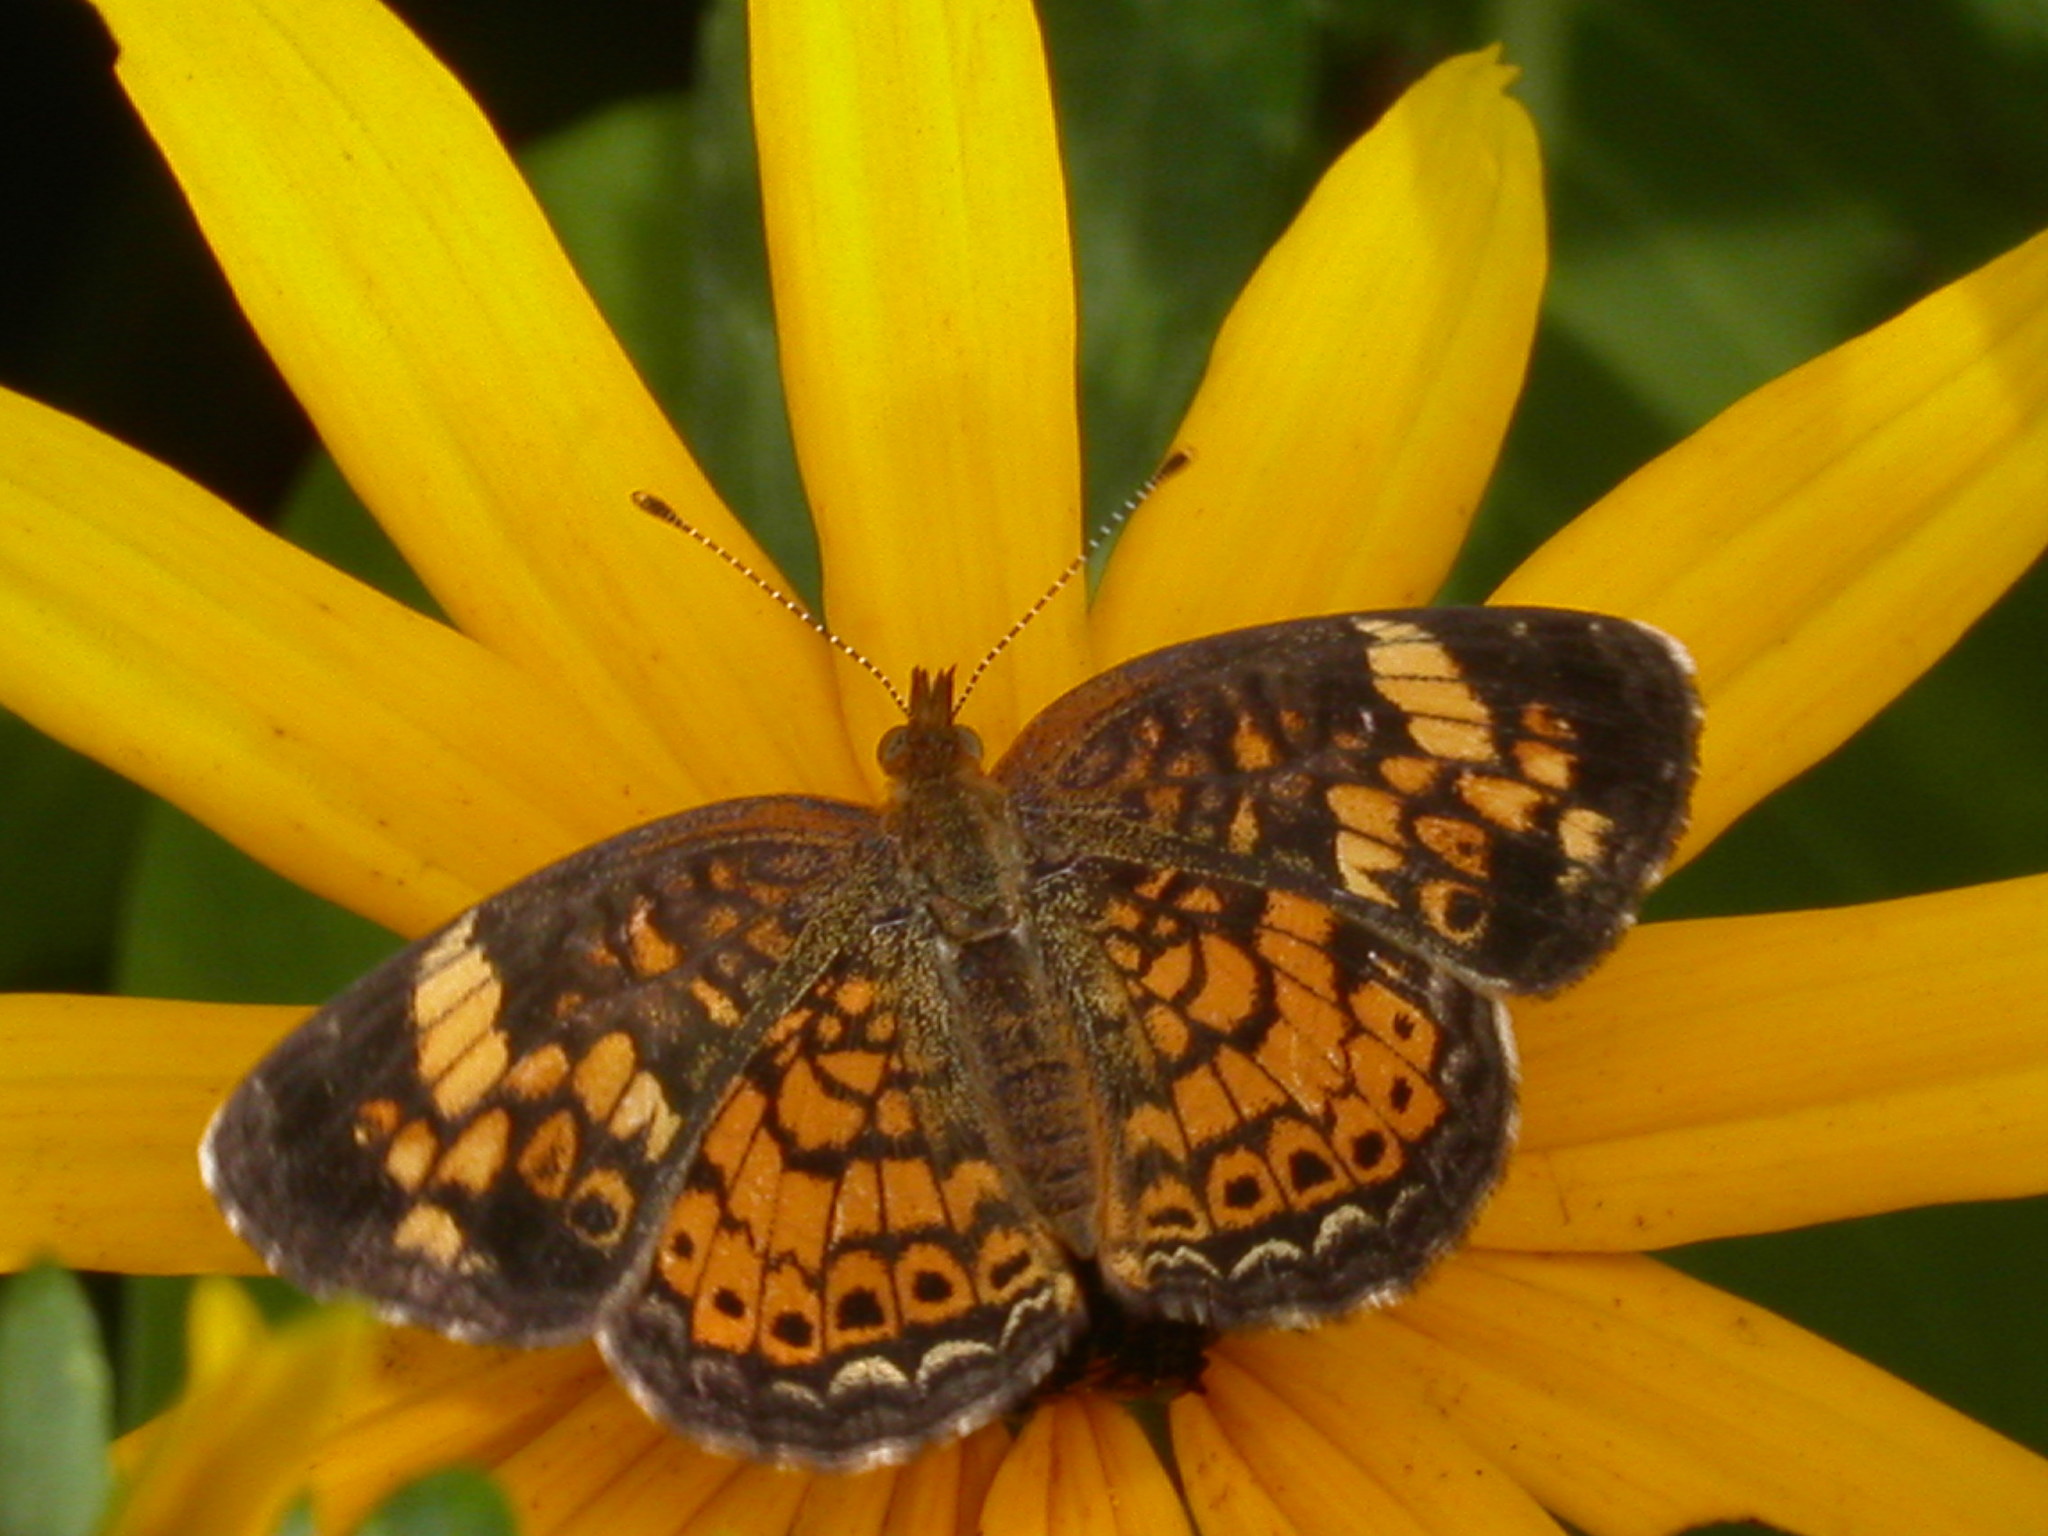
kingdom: Animalia
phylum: Arthropoda
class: Insecta
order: Lepidoptera
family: Nymphalidae
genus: Phyciodes
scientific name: Phyciodes tharos
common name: Pearl crescent
